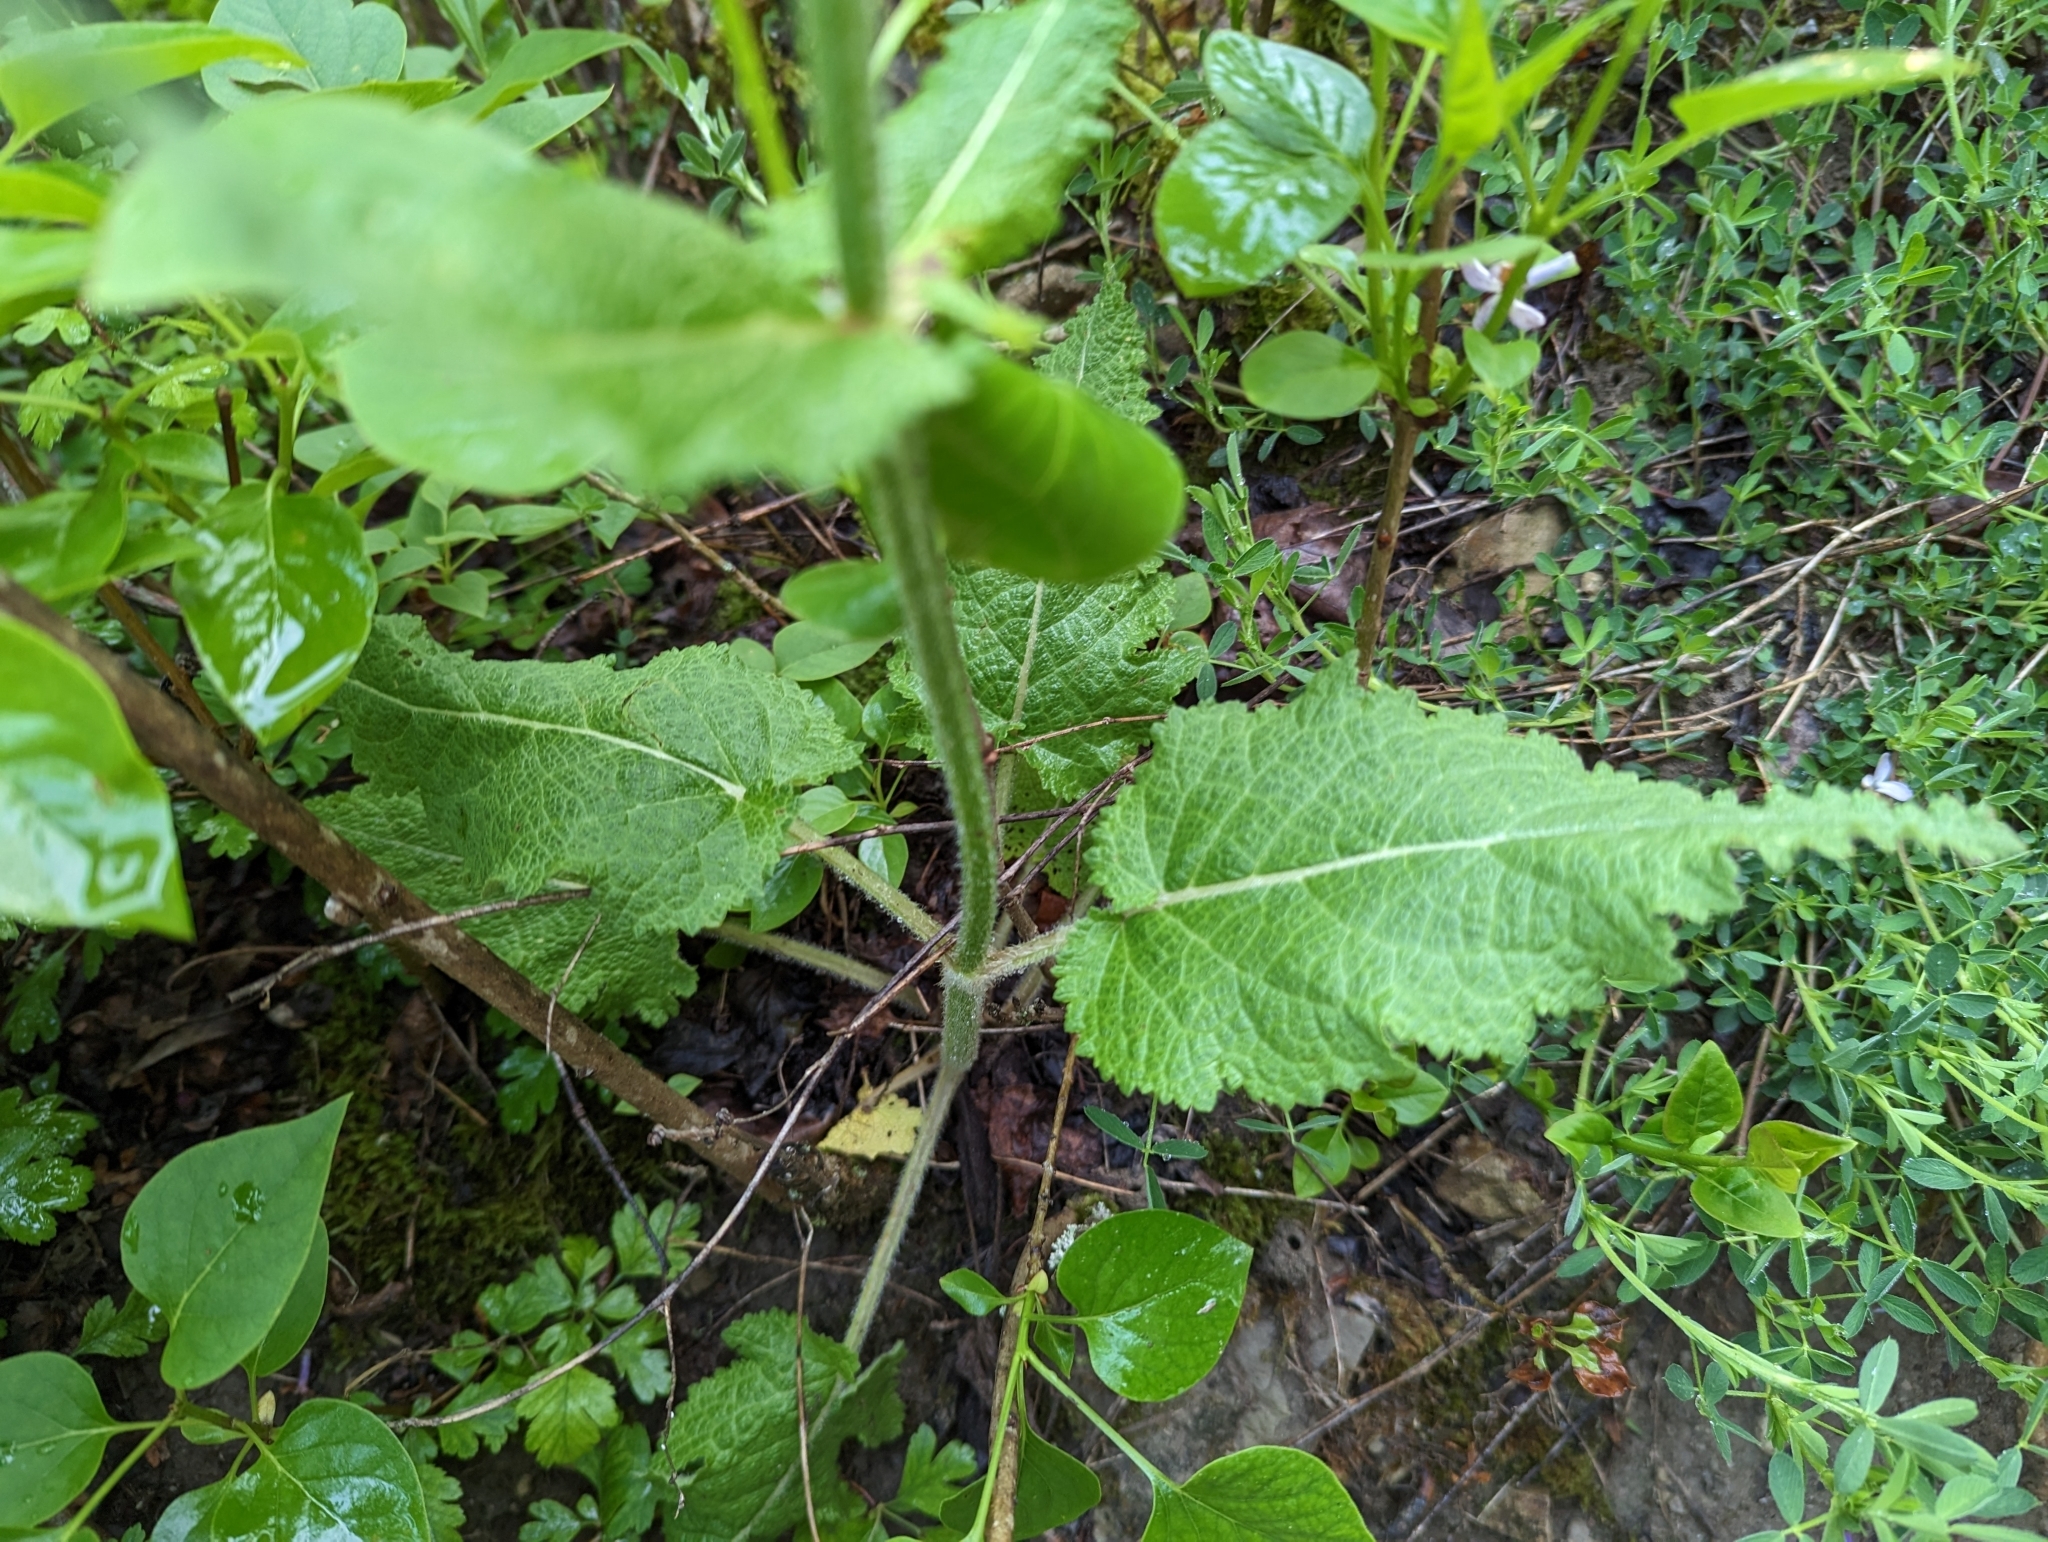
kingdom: Plantae
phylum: Tracheophyta
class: Magnoliopsida
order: Lamiales
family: Lamiaceae
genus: Salvia
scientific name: Salvia pratensis
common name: Meadow sage
